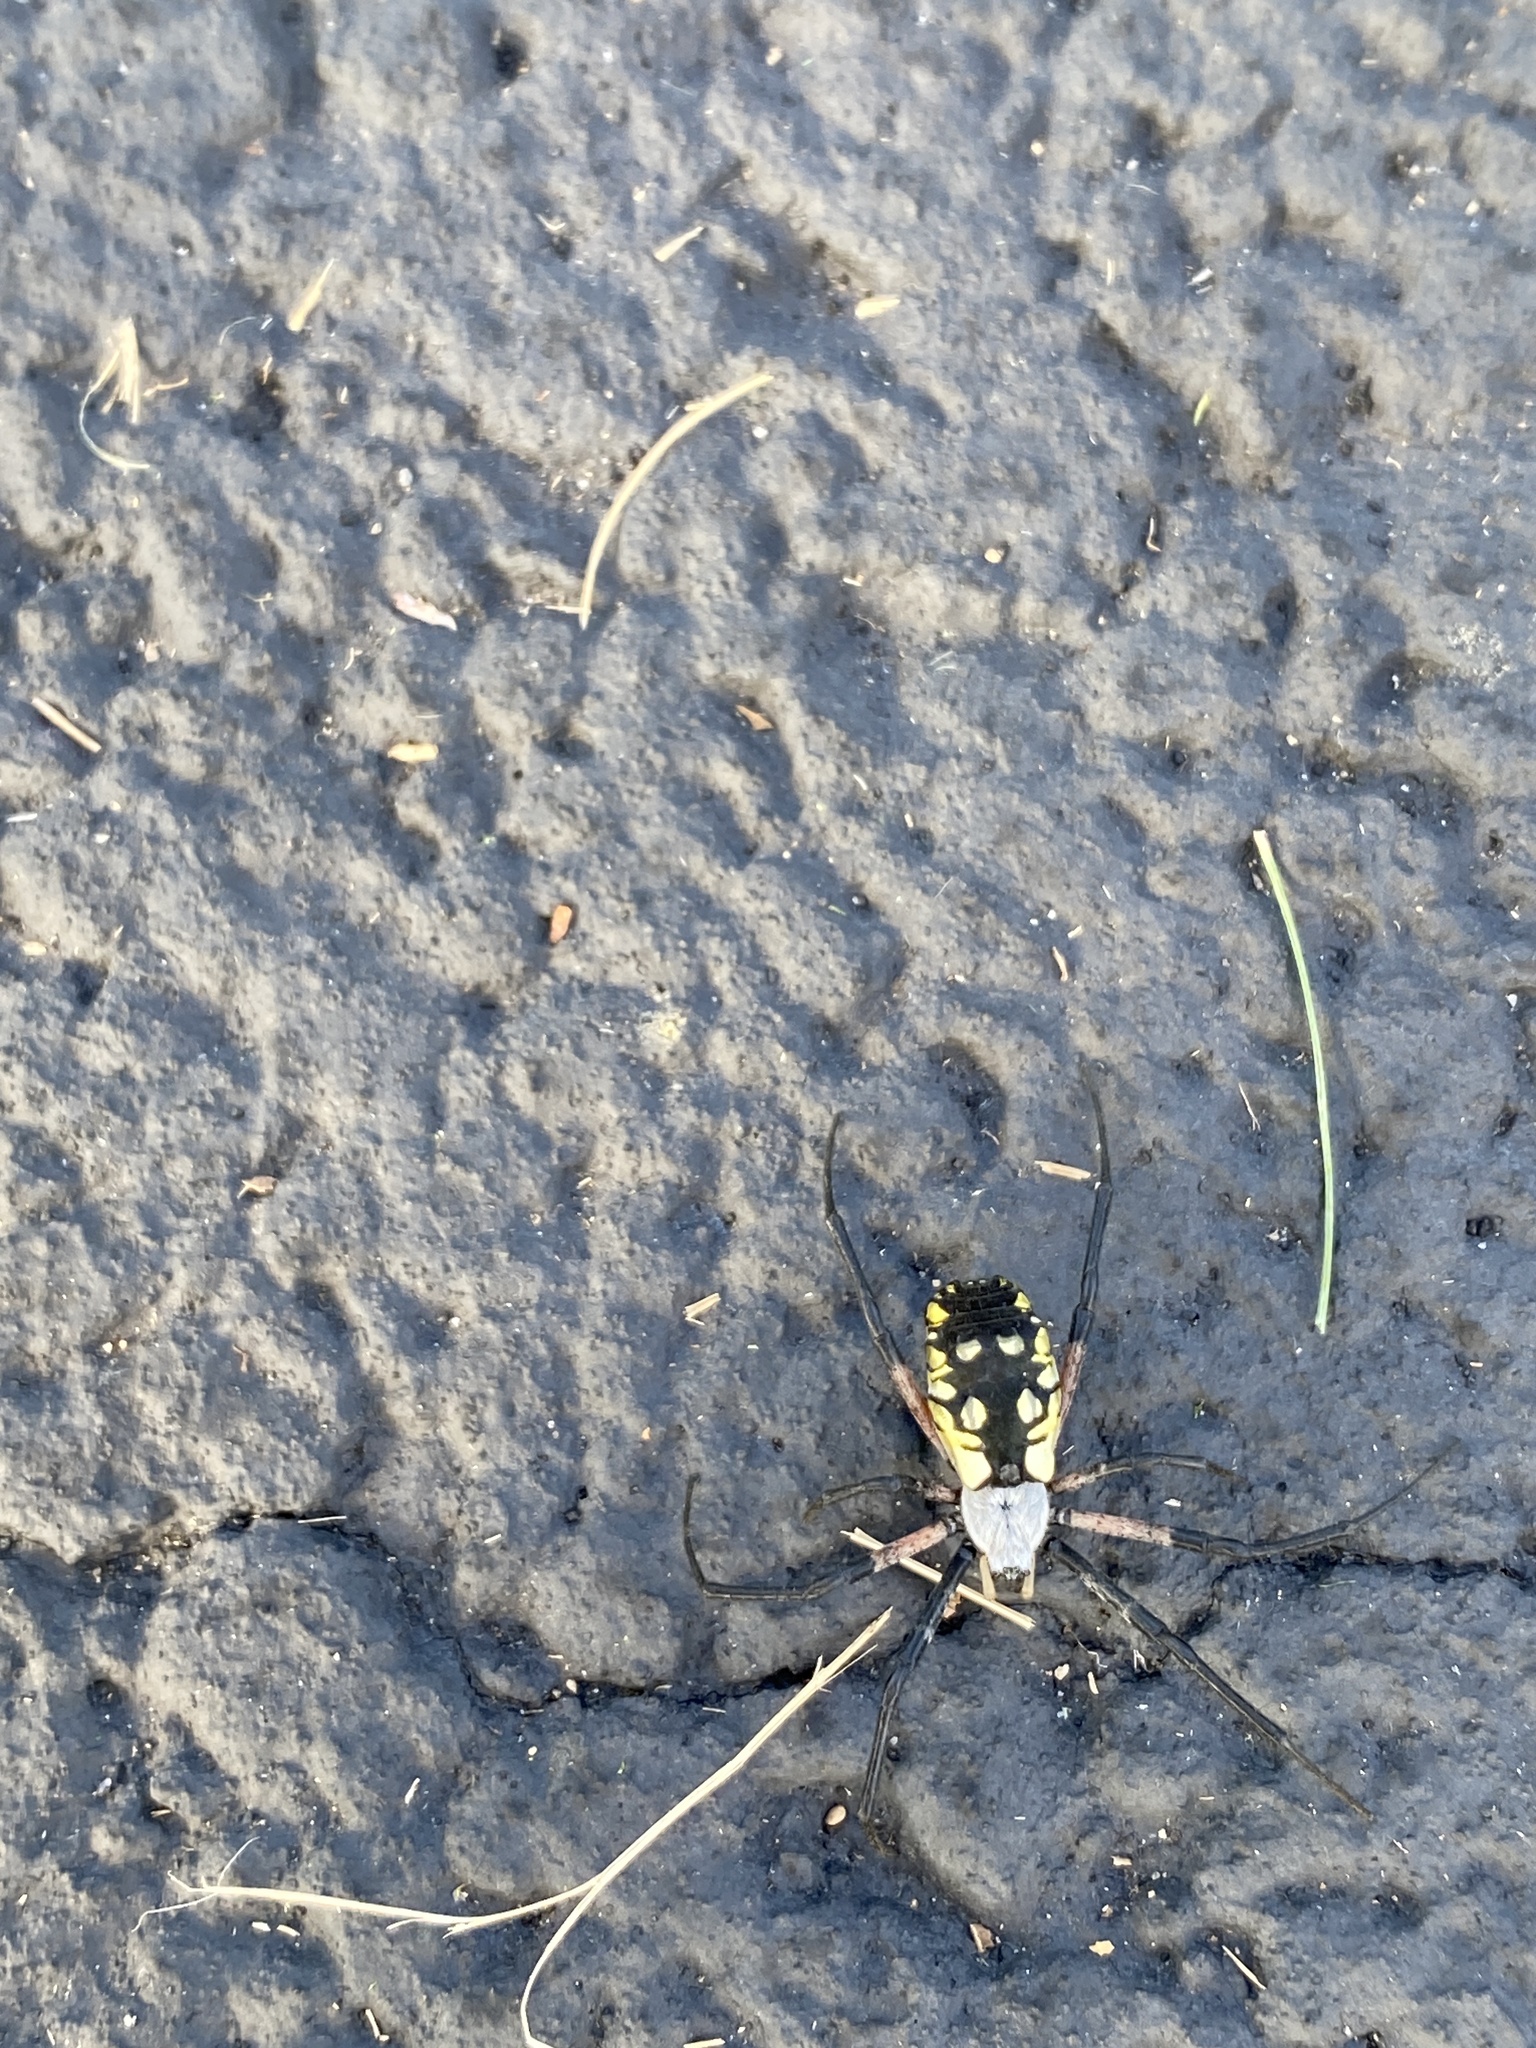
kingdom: Animalia
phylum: Arthropoda
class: Arachnida
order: Araneae
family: Araneidae
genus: Argiope
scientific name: Argiope aurantia
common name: Orb weavers
